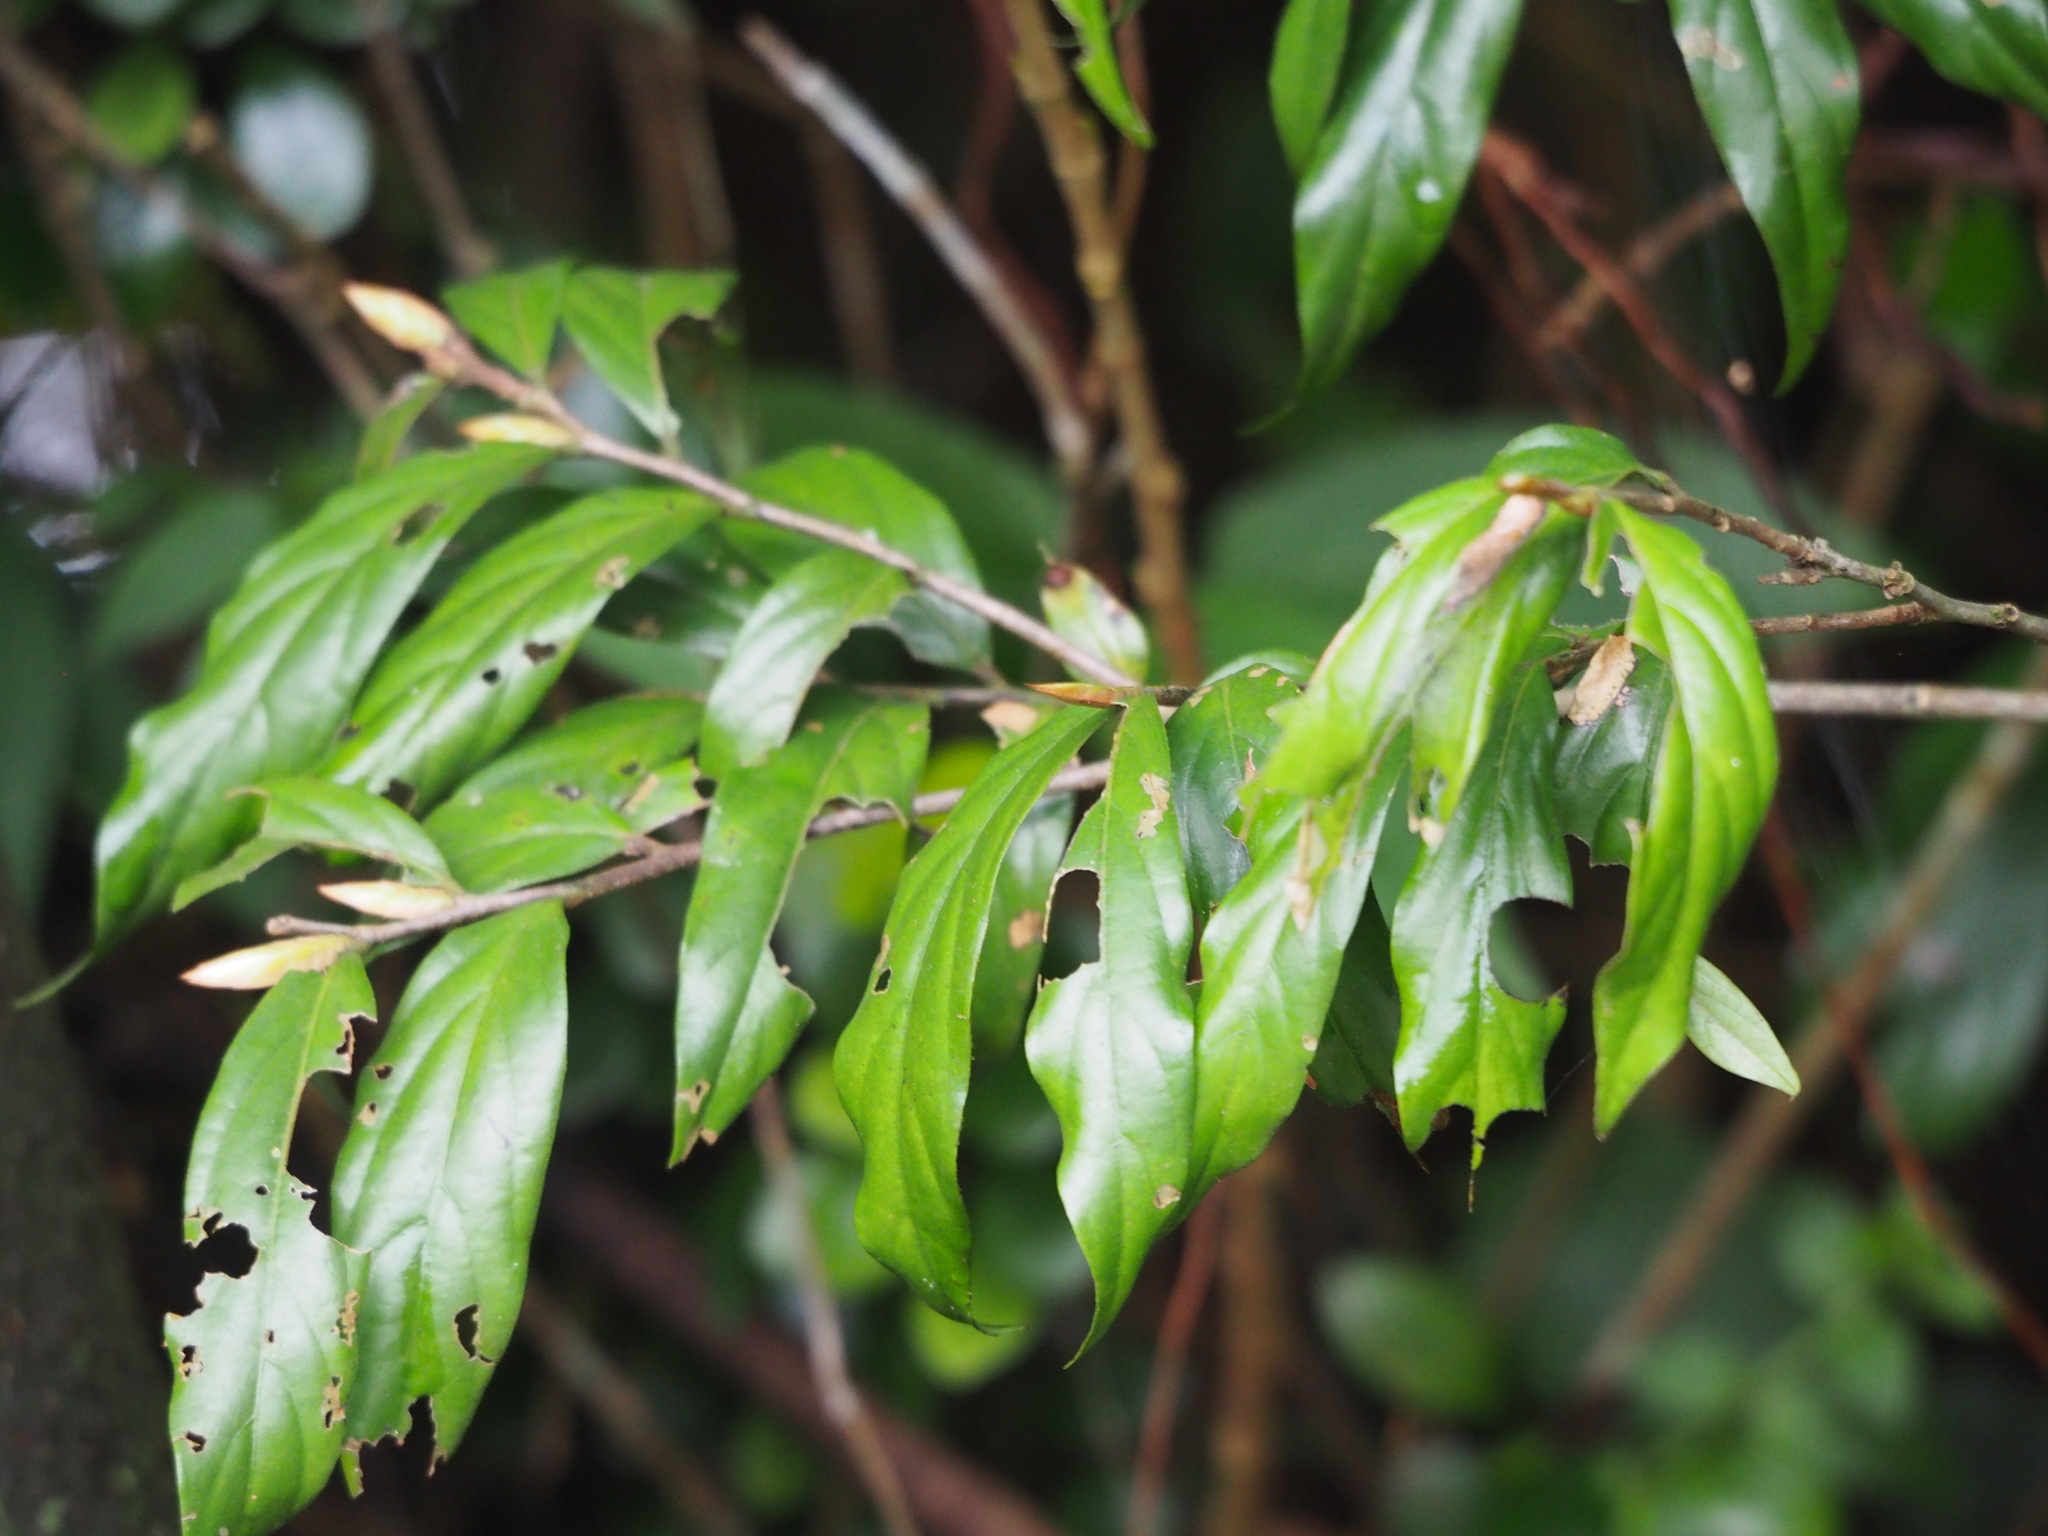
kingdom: Plantae
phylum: Tracheophyta
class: Magnoliopsida
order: Ericales
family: Ebenaceae
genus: Diospyros
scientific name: Diospyros eriantha
